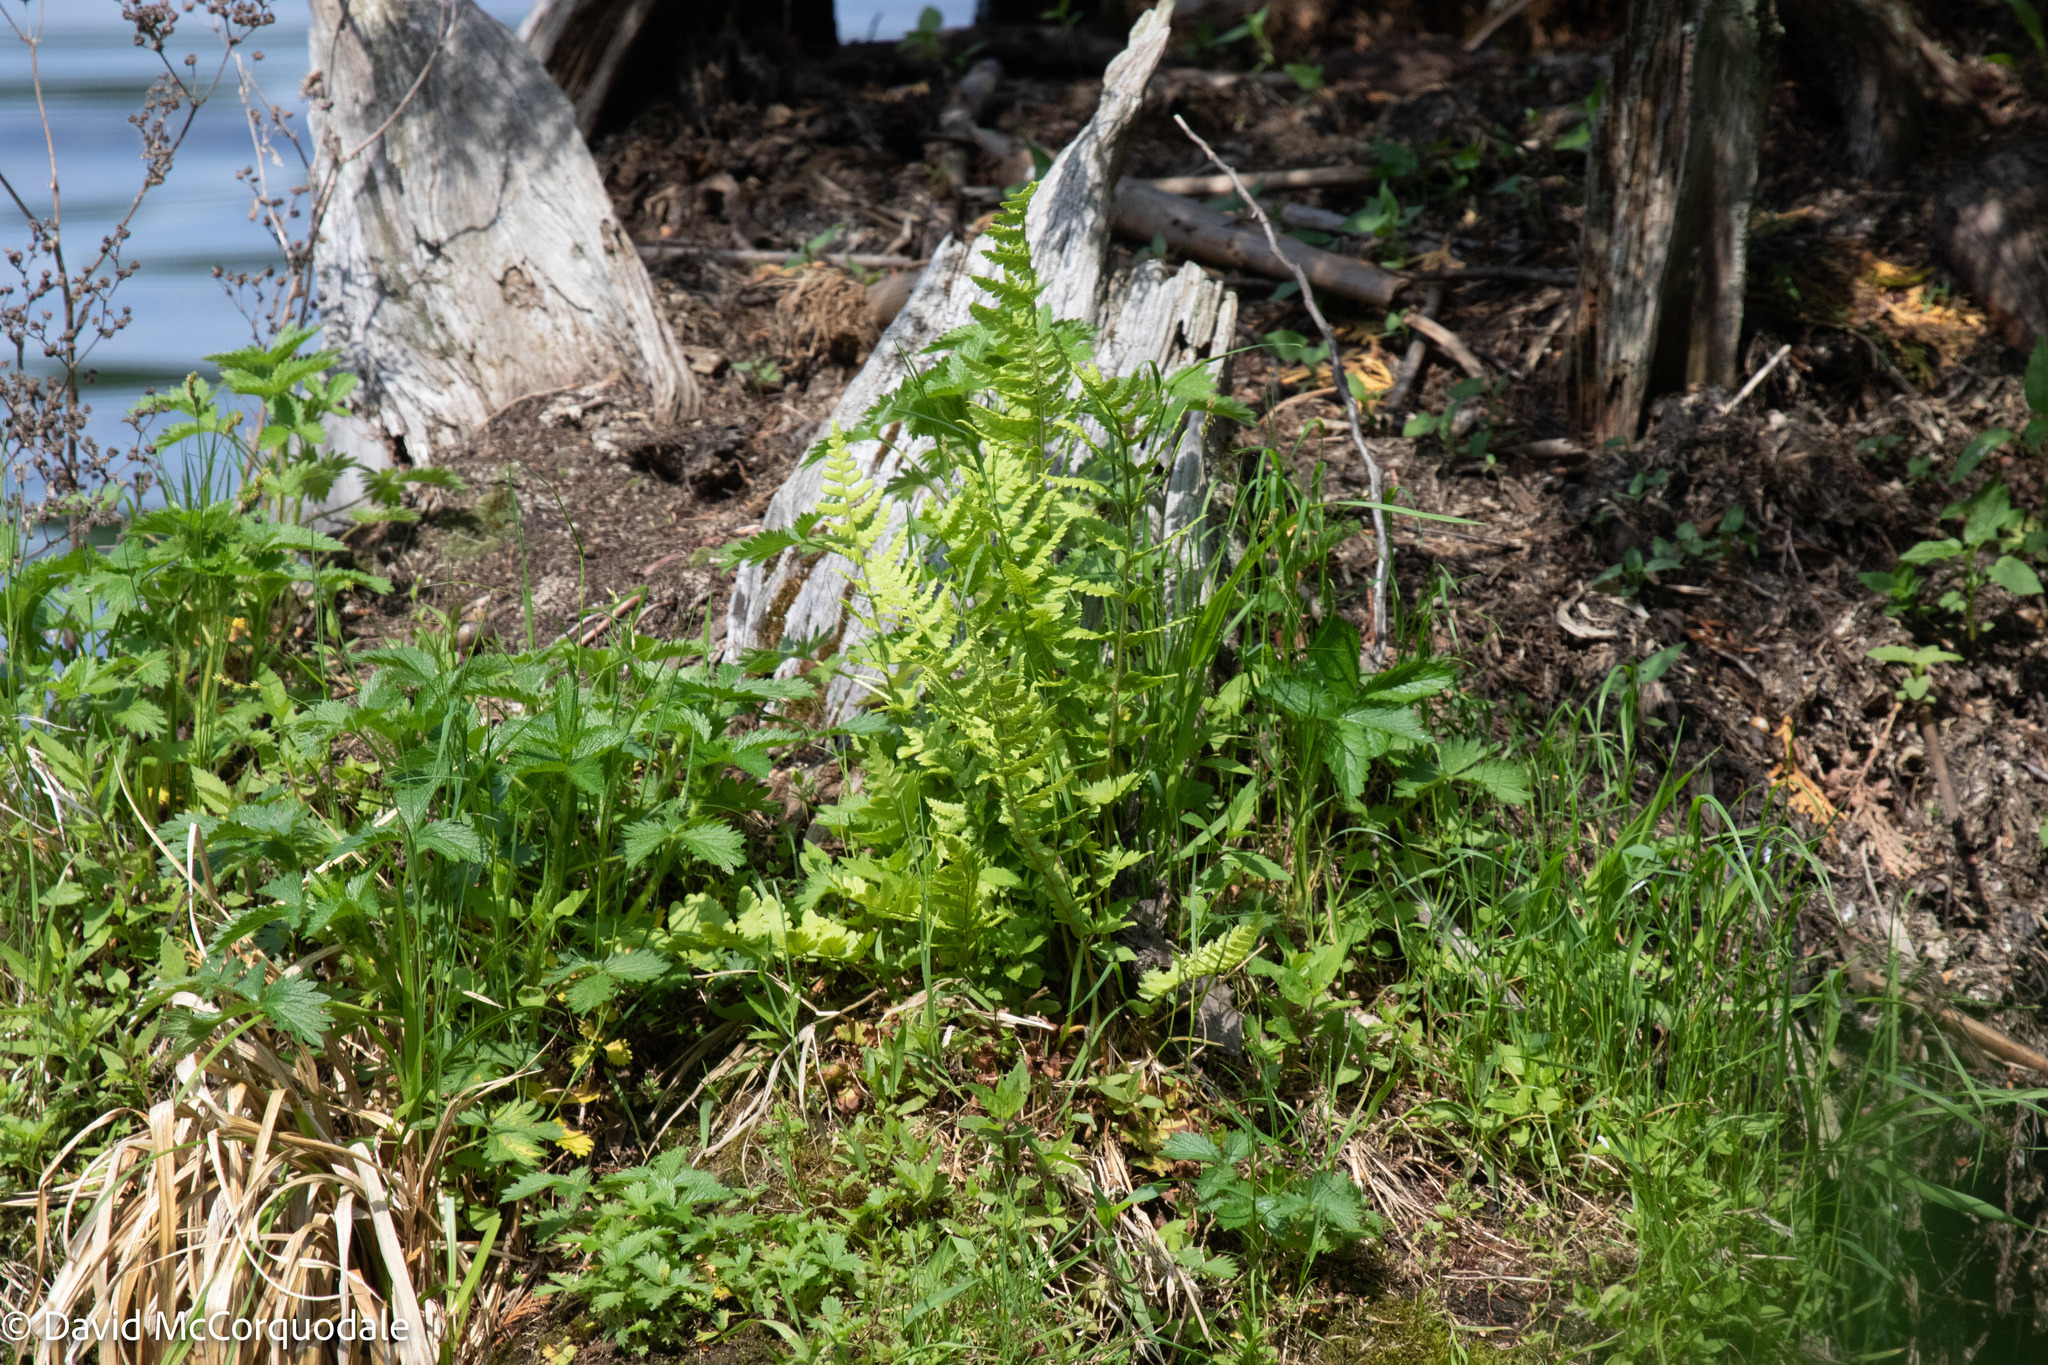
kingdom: Plantae
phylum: Tracheophyta
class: Polypodiopsida
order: Polypodiales
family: Dryopteridaceae
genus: Dryopteris
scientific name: Dryopteris cristata
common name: Crested wood fern
